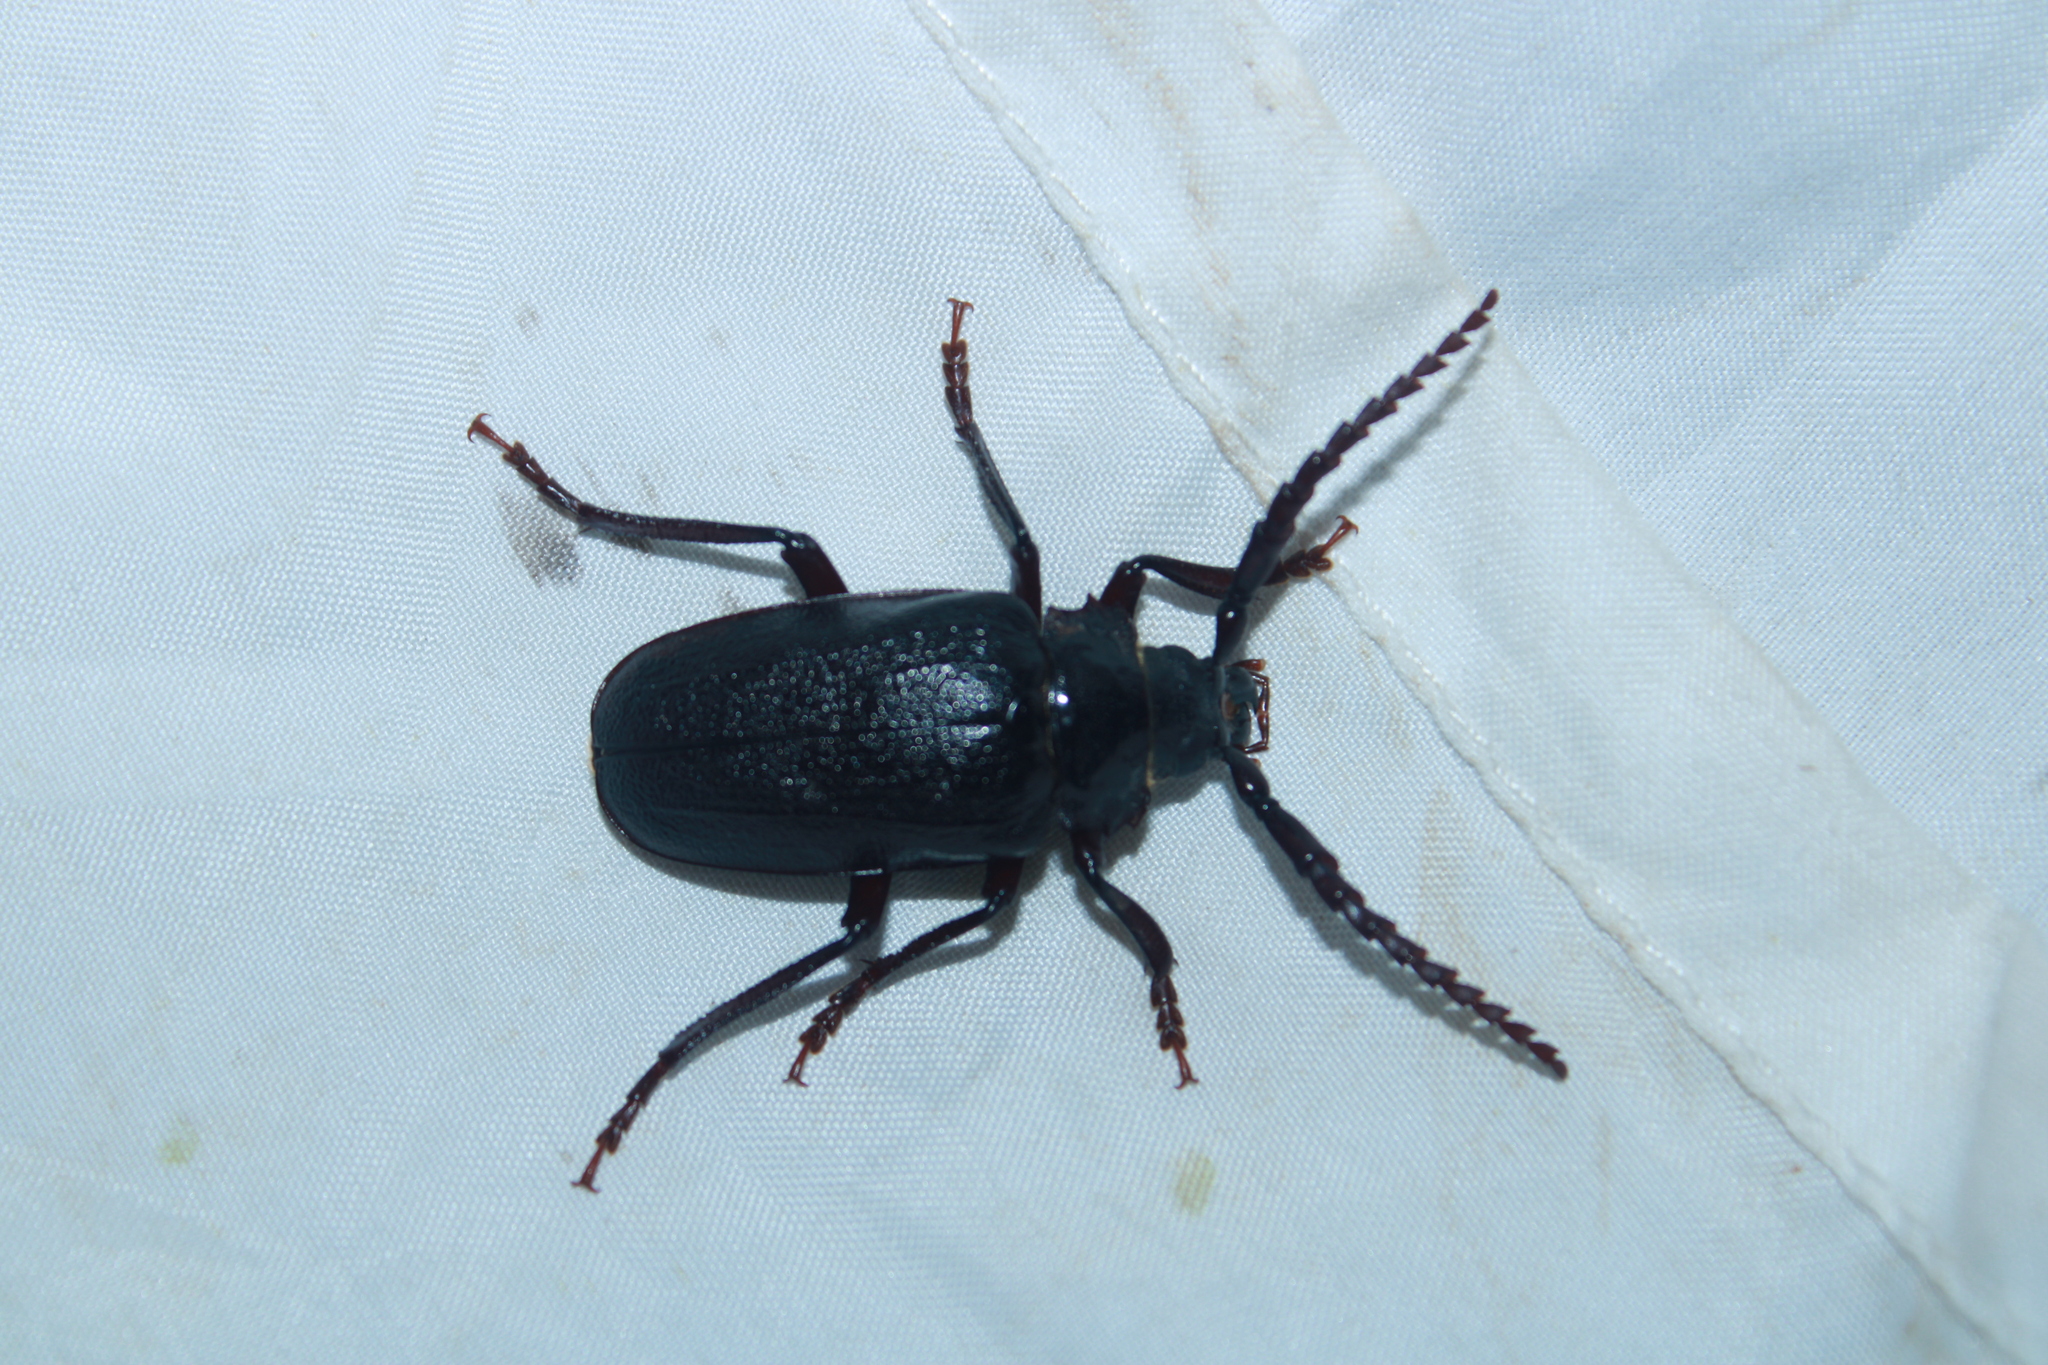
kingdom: Animalia
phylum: Arthropoda
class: Insecta
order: Coleoptera
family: Cerambycidae
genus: Prionus
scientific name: Prionus laticollis
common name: Broad necked prionus
